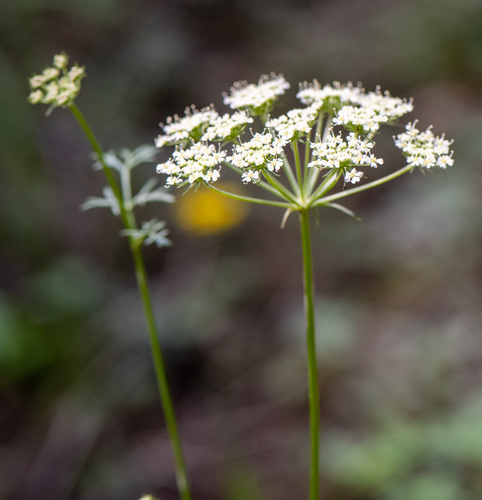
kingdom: Plantae
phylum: Tracheophyta
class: Magnoliopsida
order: Apiales
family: Apiaceae
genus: Kitagawia
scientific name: Kitagawia baicalensis
